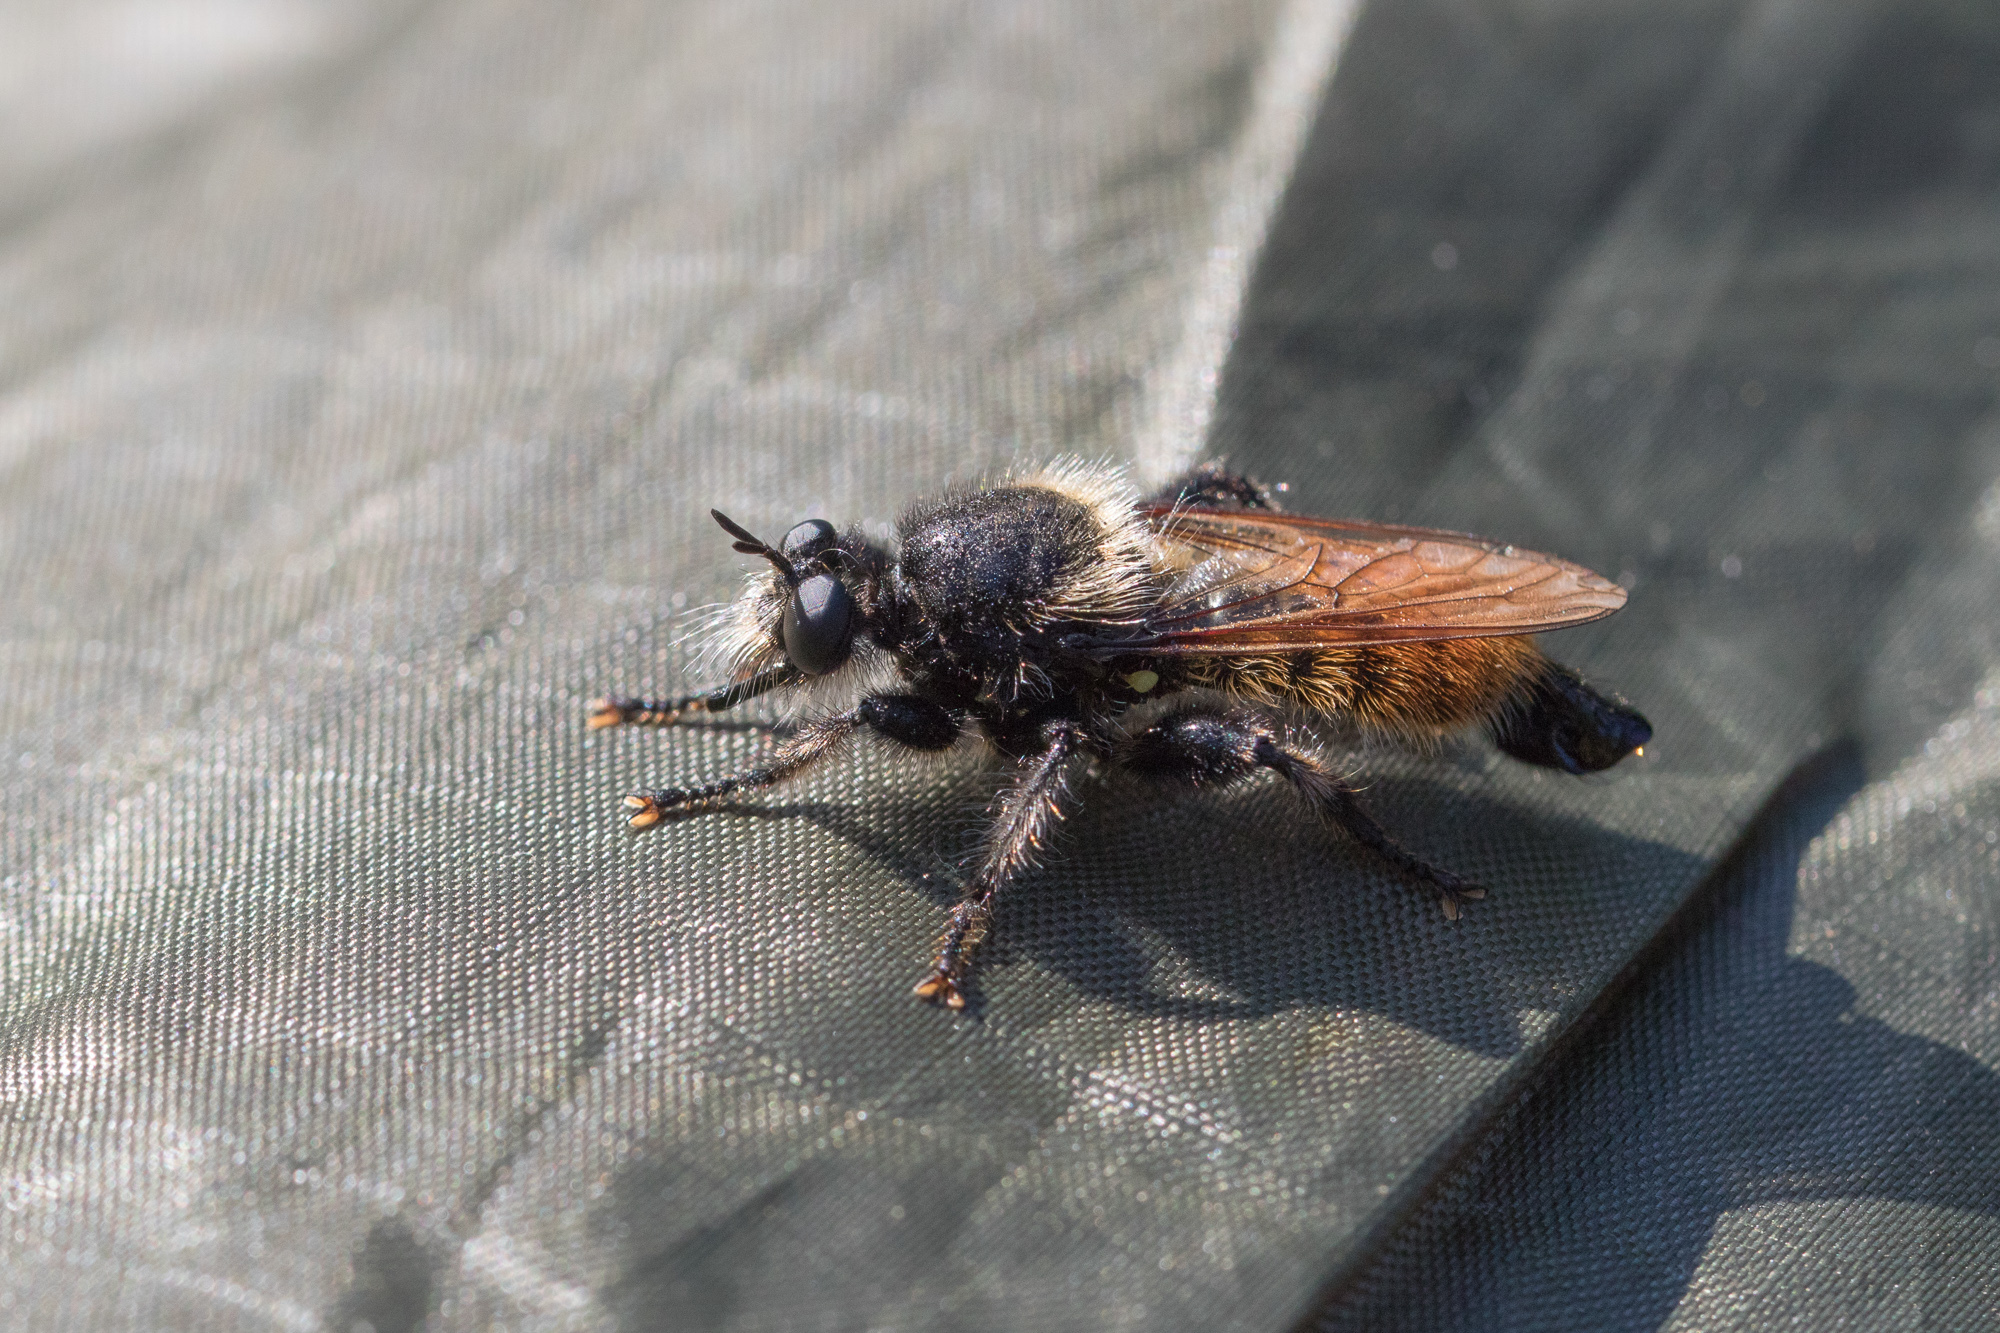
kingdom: Animalia
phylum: Arthropoda
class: Insecta
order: Diptera
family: Asilidae
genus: Laphria
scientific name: Laphria flava
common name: Bumblebee robberfly
